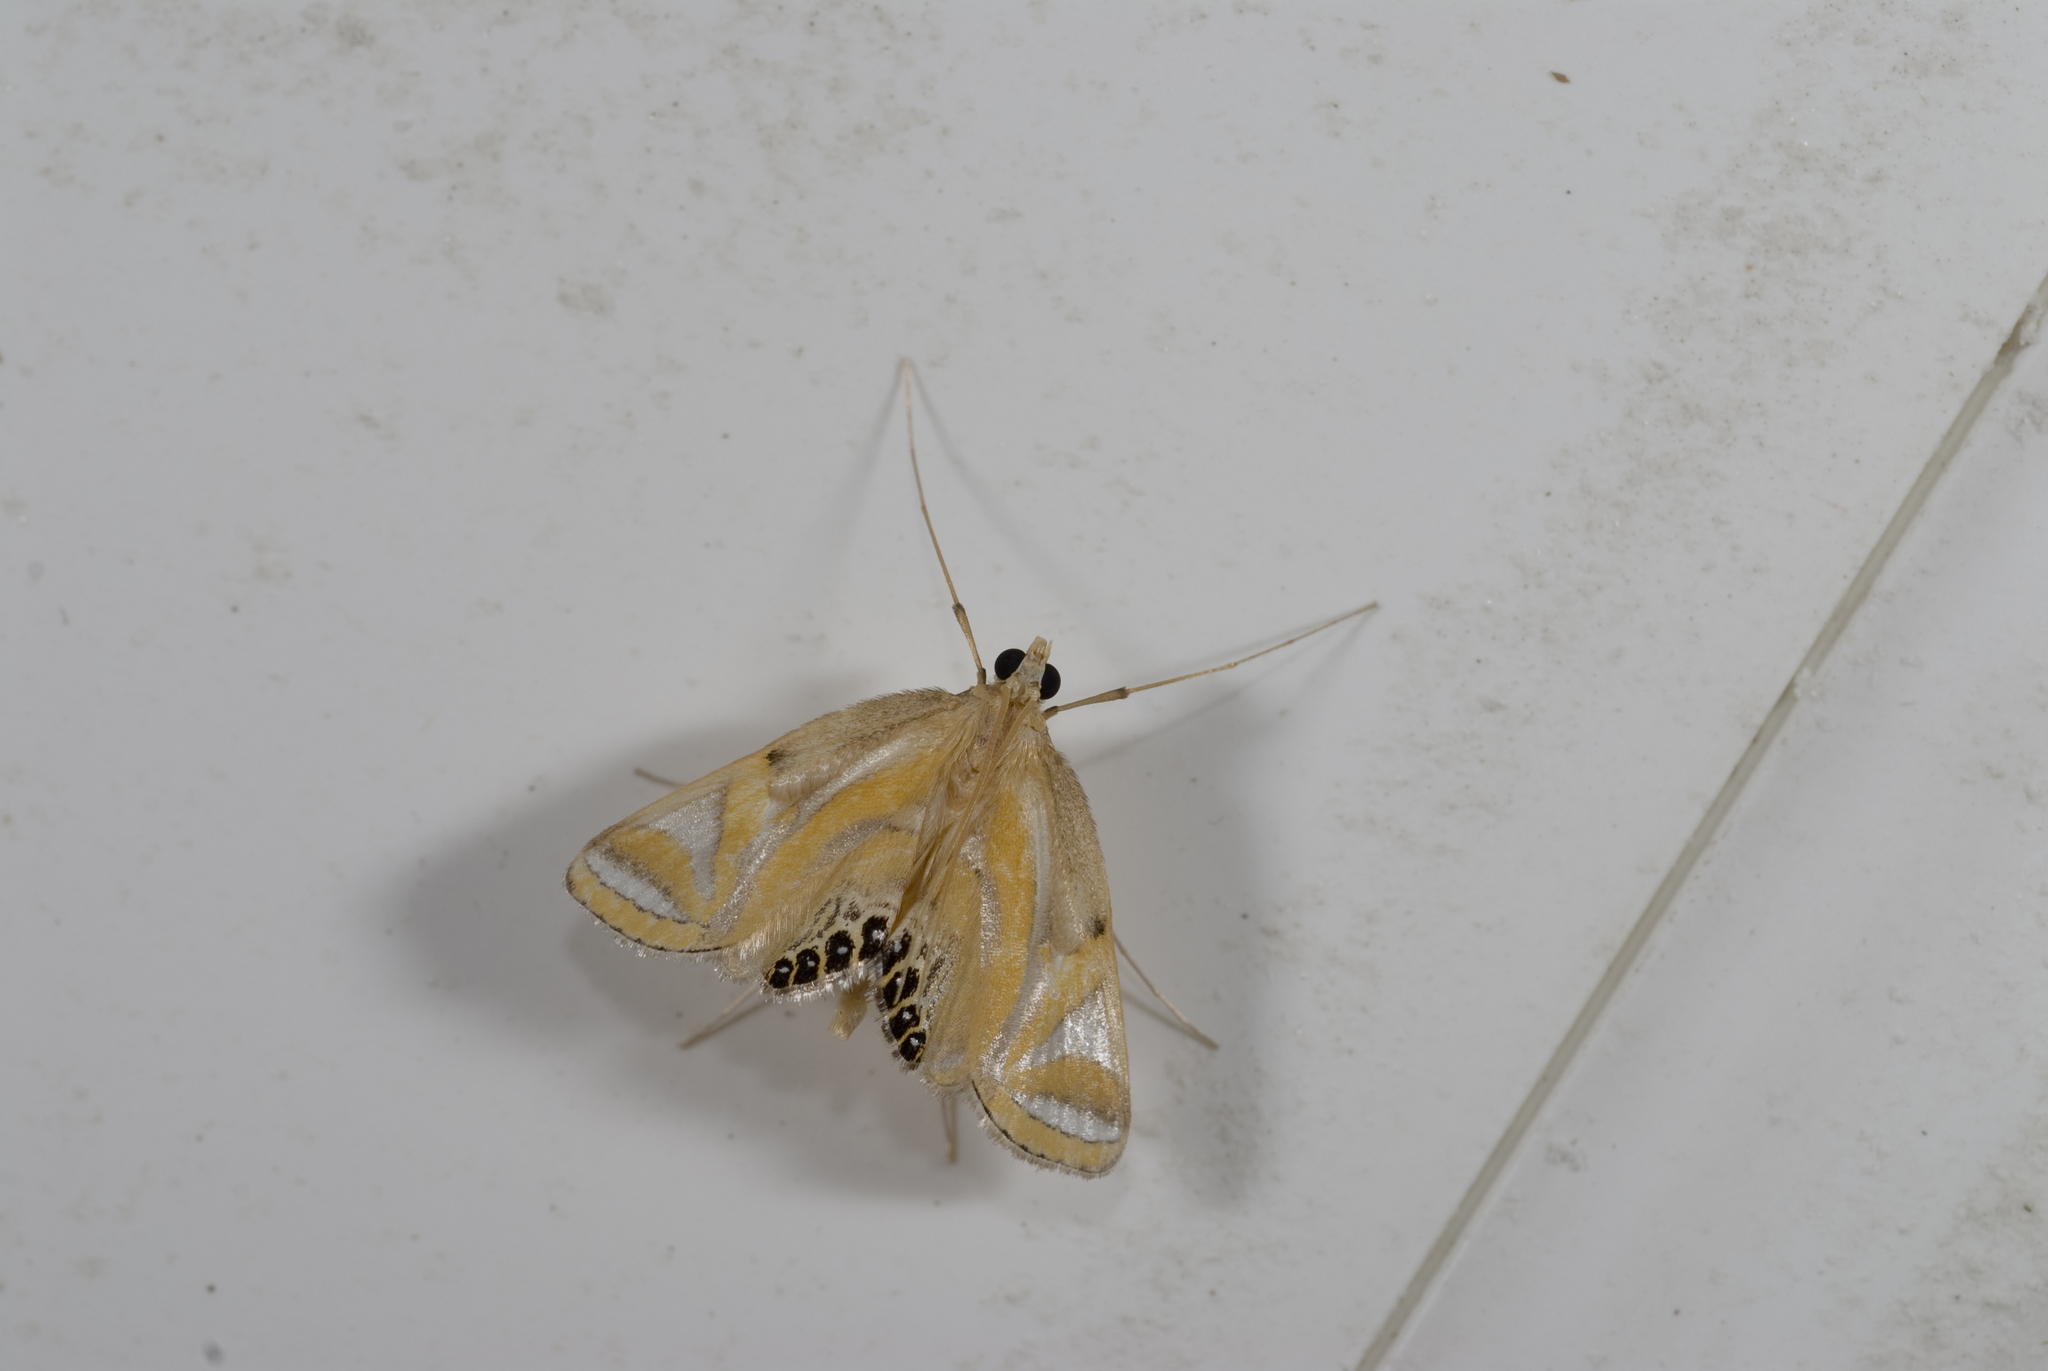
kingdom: Animalia
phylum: Arthropoda
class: Insecta
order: Lepidoptera
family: Crambidae
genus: Eoophyla
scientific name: Eoophyla conjunctalis
